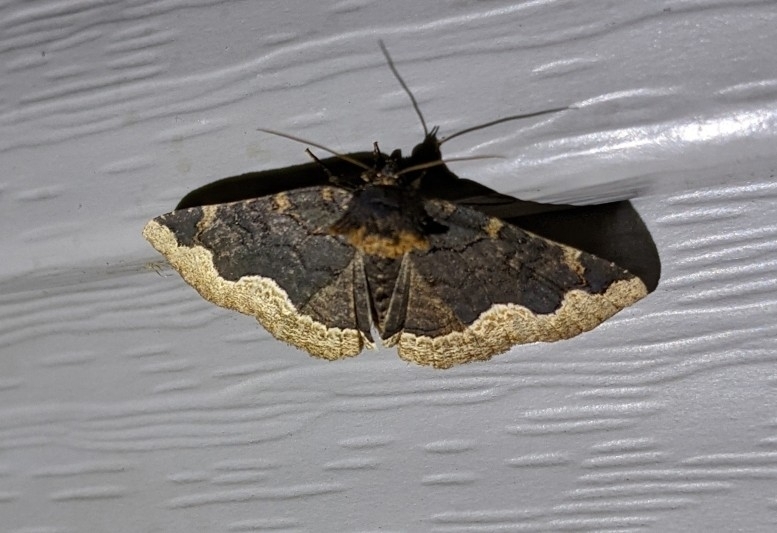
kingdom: Animalia
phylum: Arthropoda
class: Insecta
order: Lepidoptera
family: Erebidae
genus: Zale
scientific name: Zale horrida
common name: Horrid zale moth
